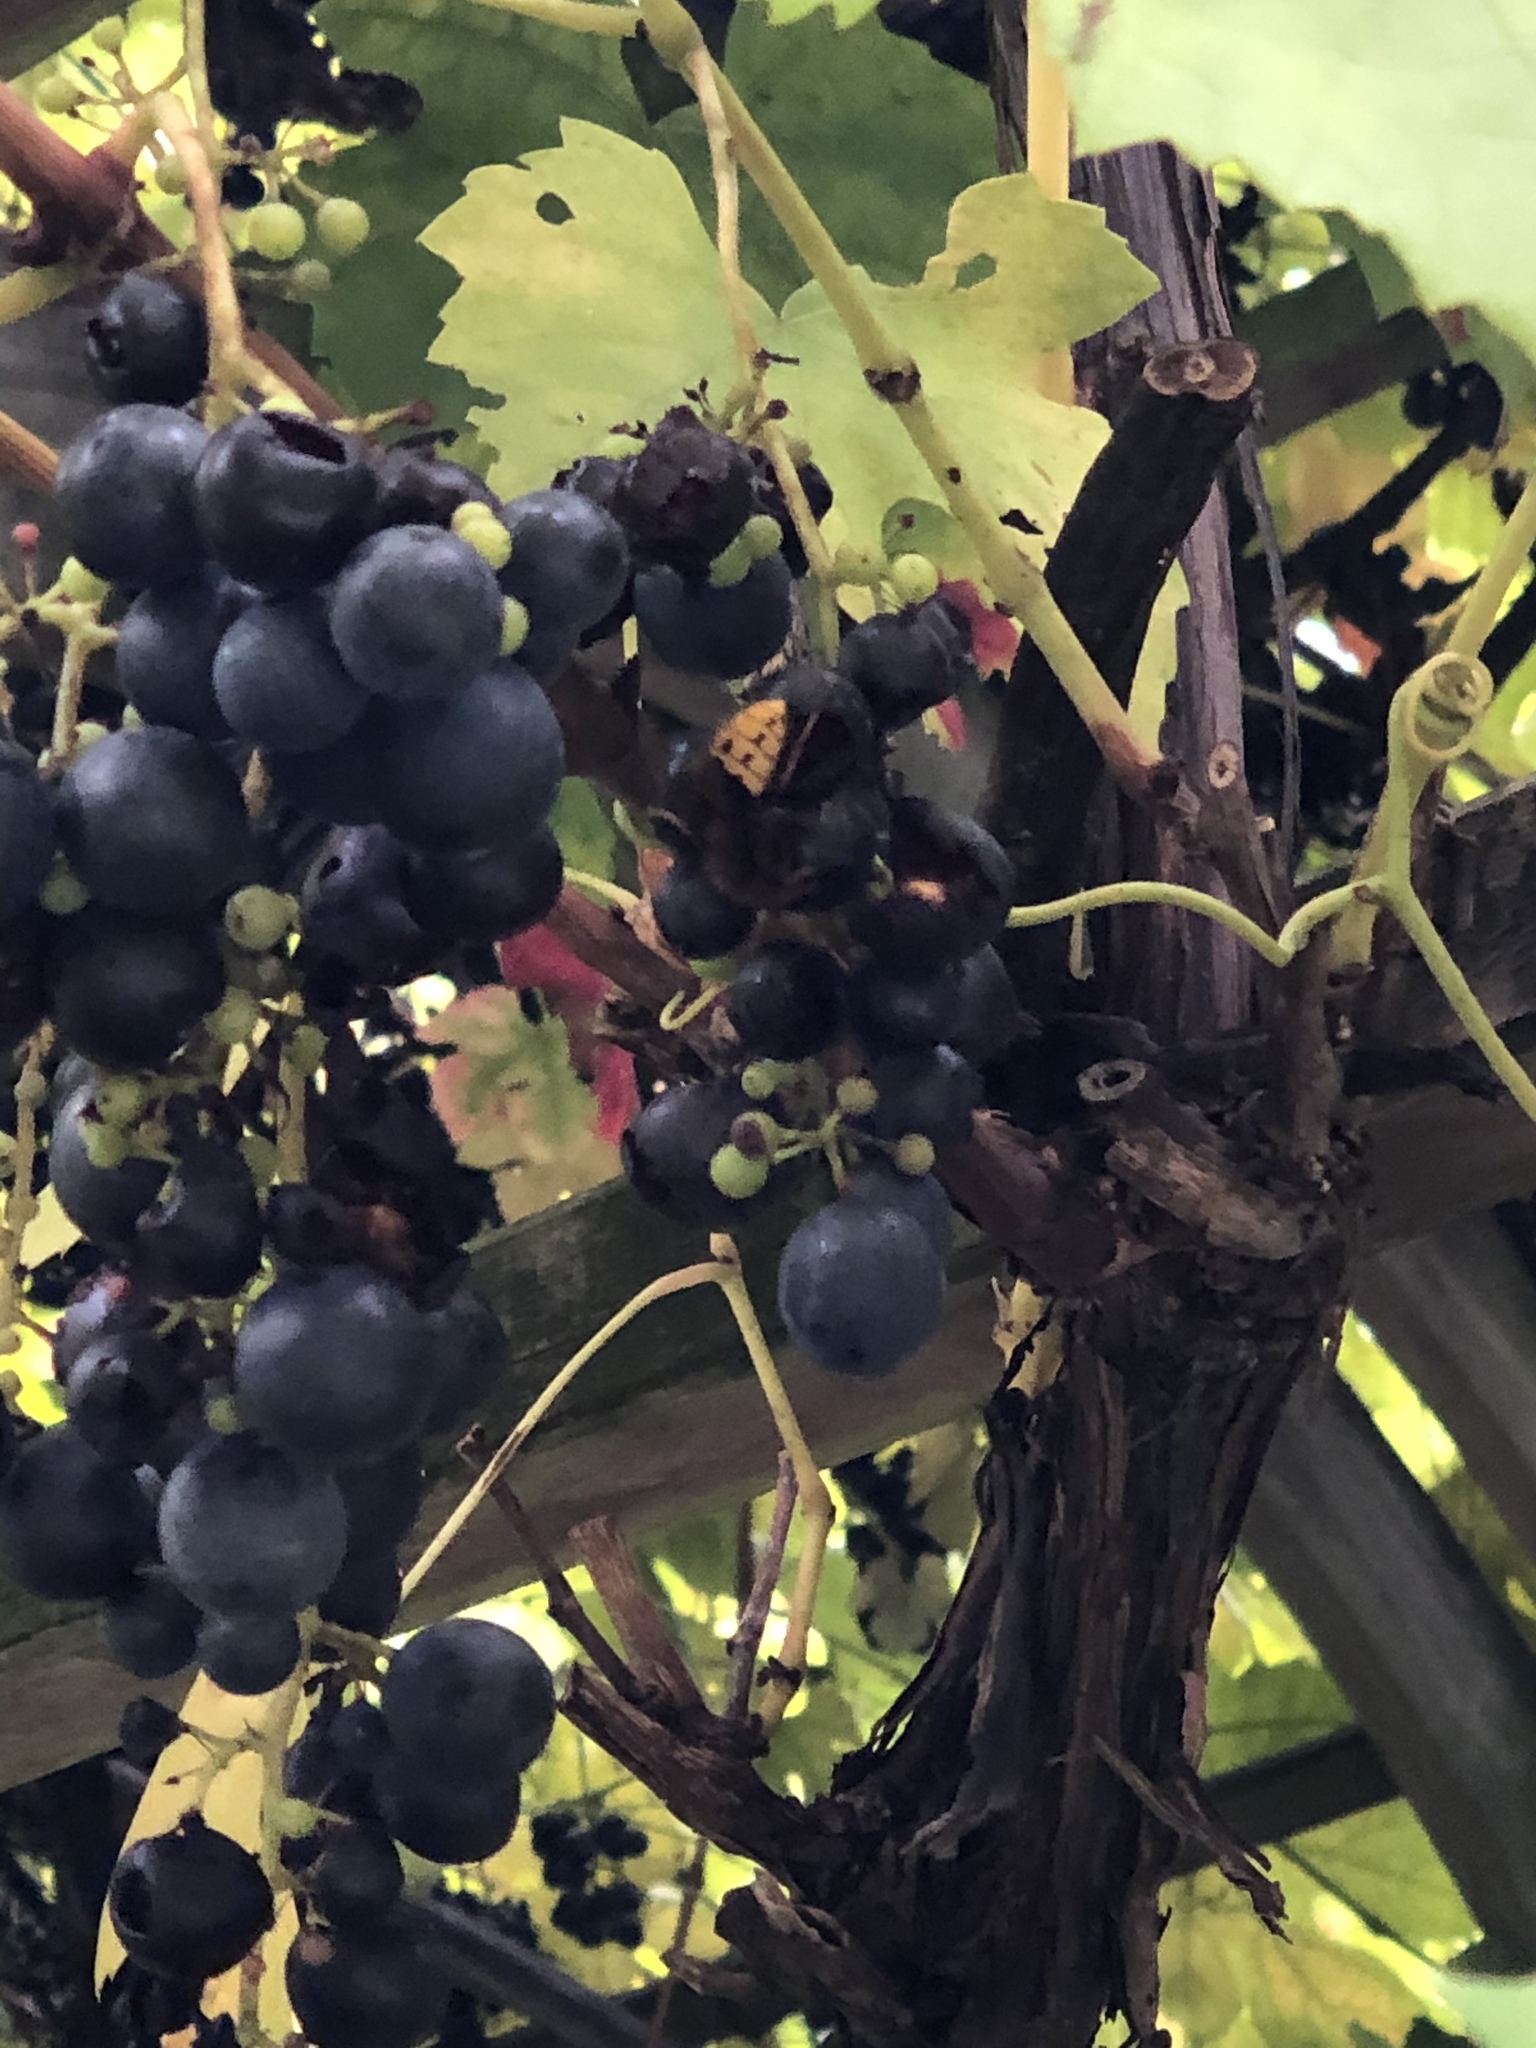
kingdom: Animalia
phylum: Arthropoda
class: Insecta
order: Hymenoptera
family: Vespidae
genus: Vespa
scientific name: Vespa crabro
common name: Hornet
